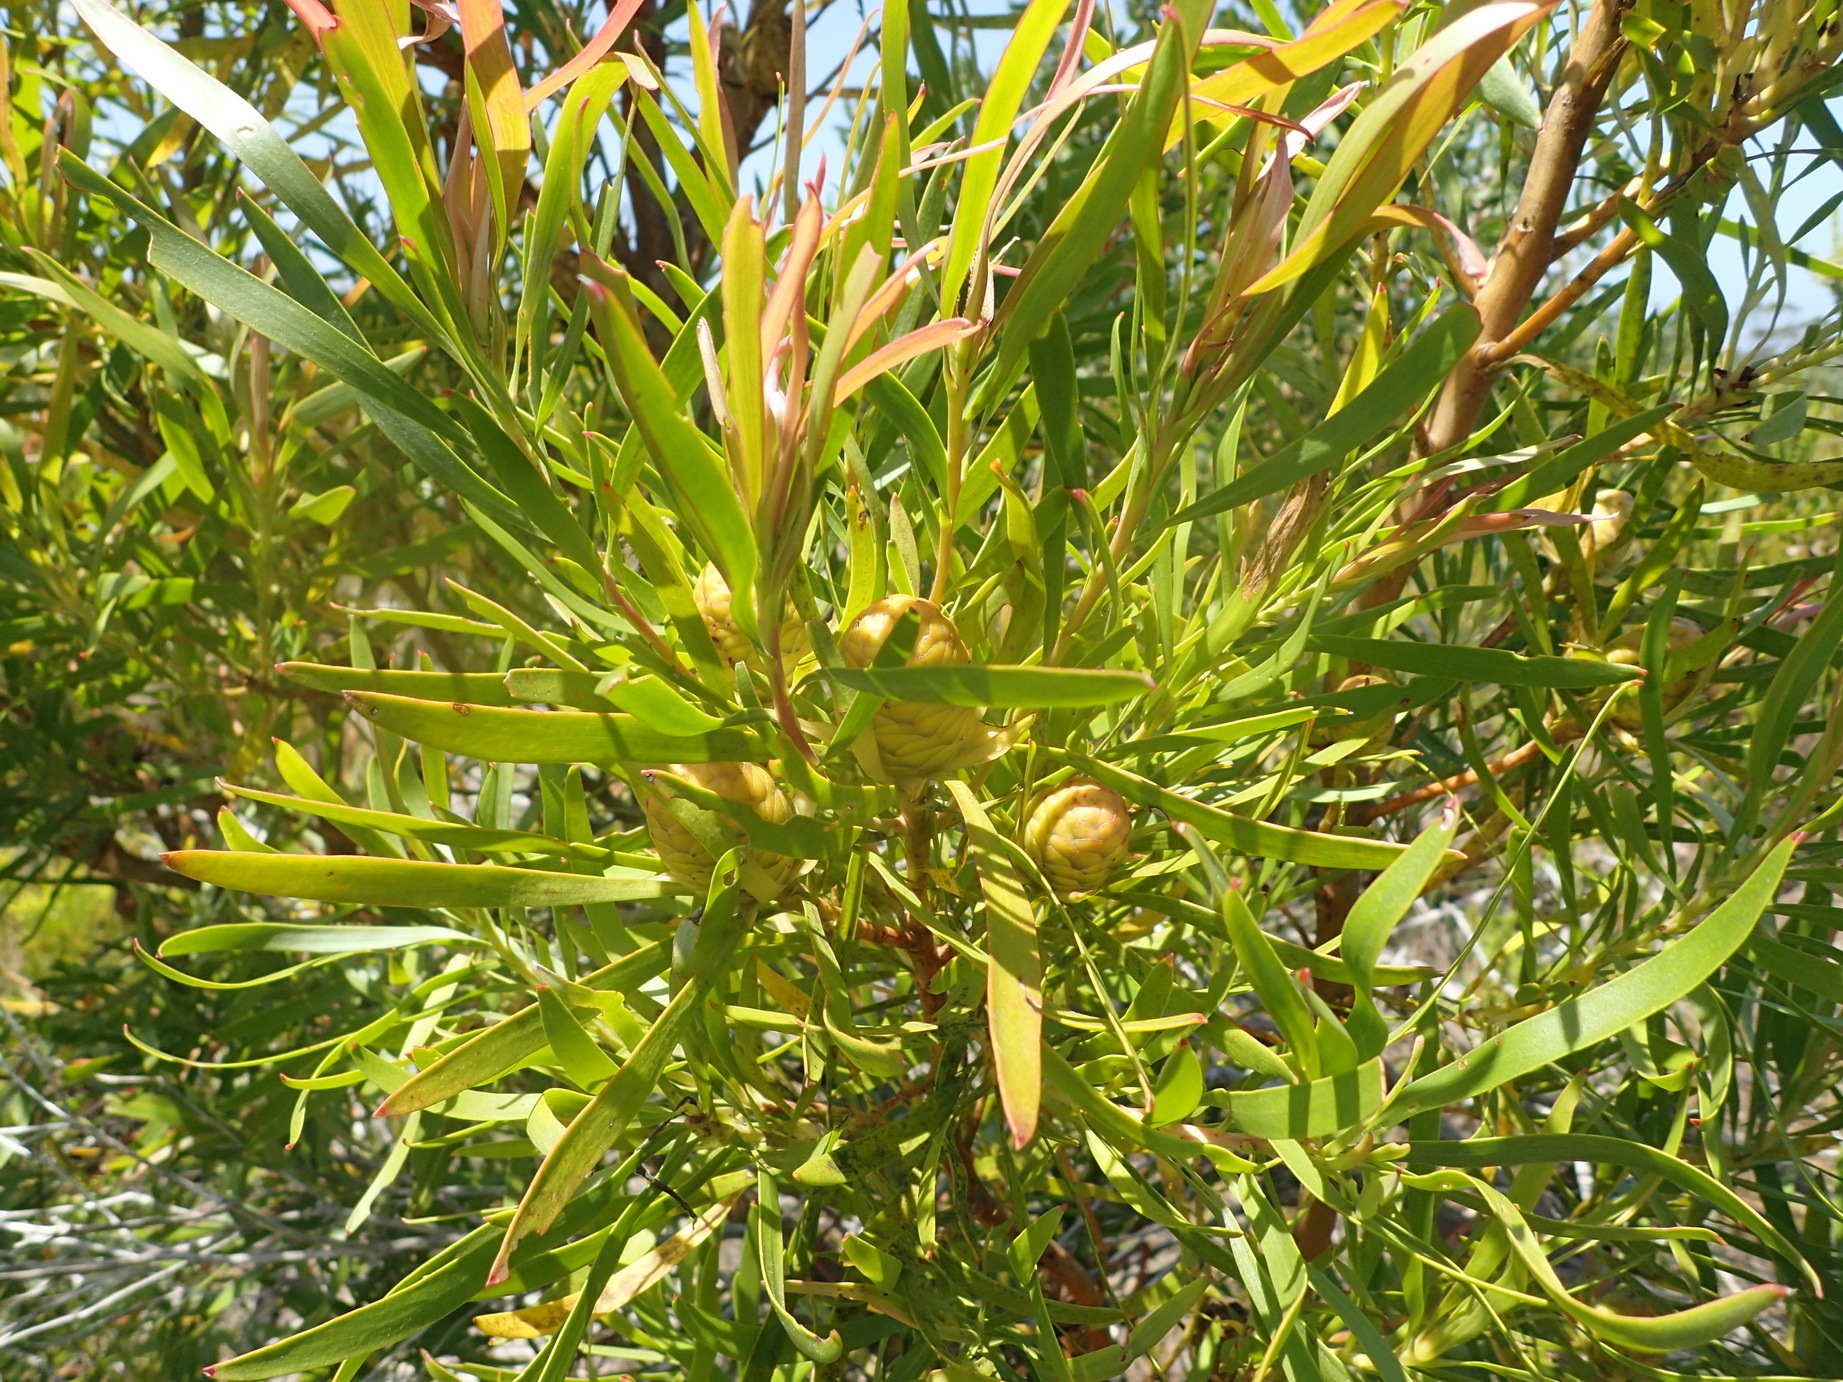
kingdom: Plantae
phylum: Tracheophyta
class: Magnoliopsida
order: Proteales
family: Proteaceae
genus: Leucadendron
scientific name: Leucadendron eucalyptifolium
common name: Gum-leaved conebush
